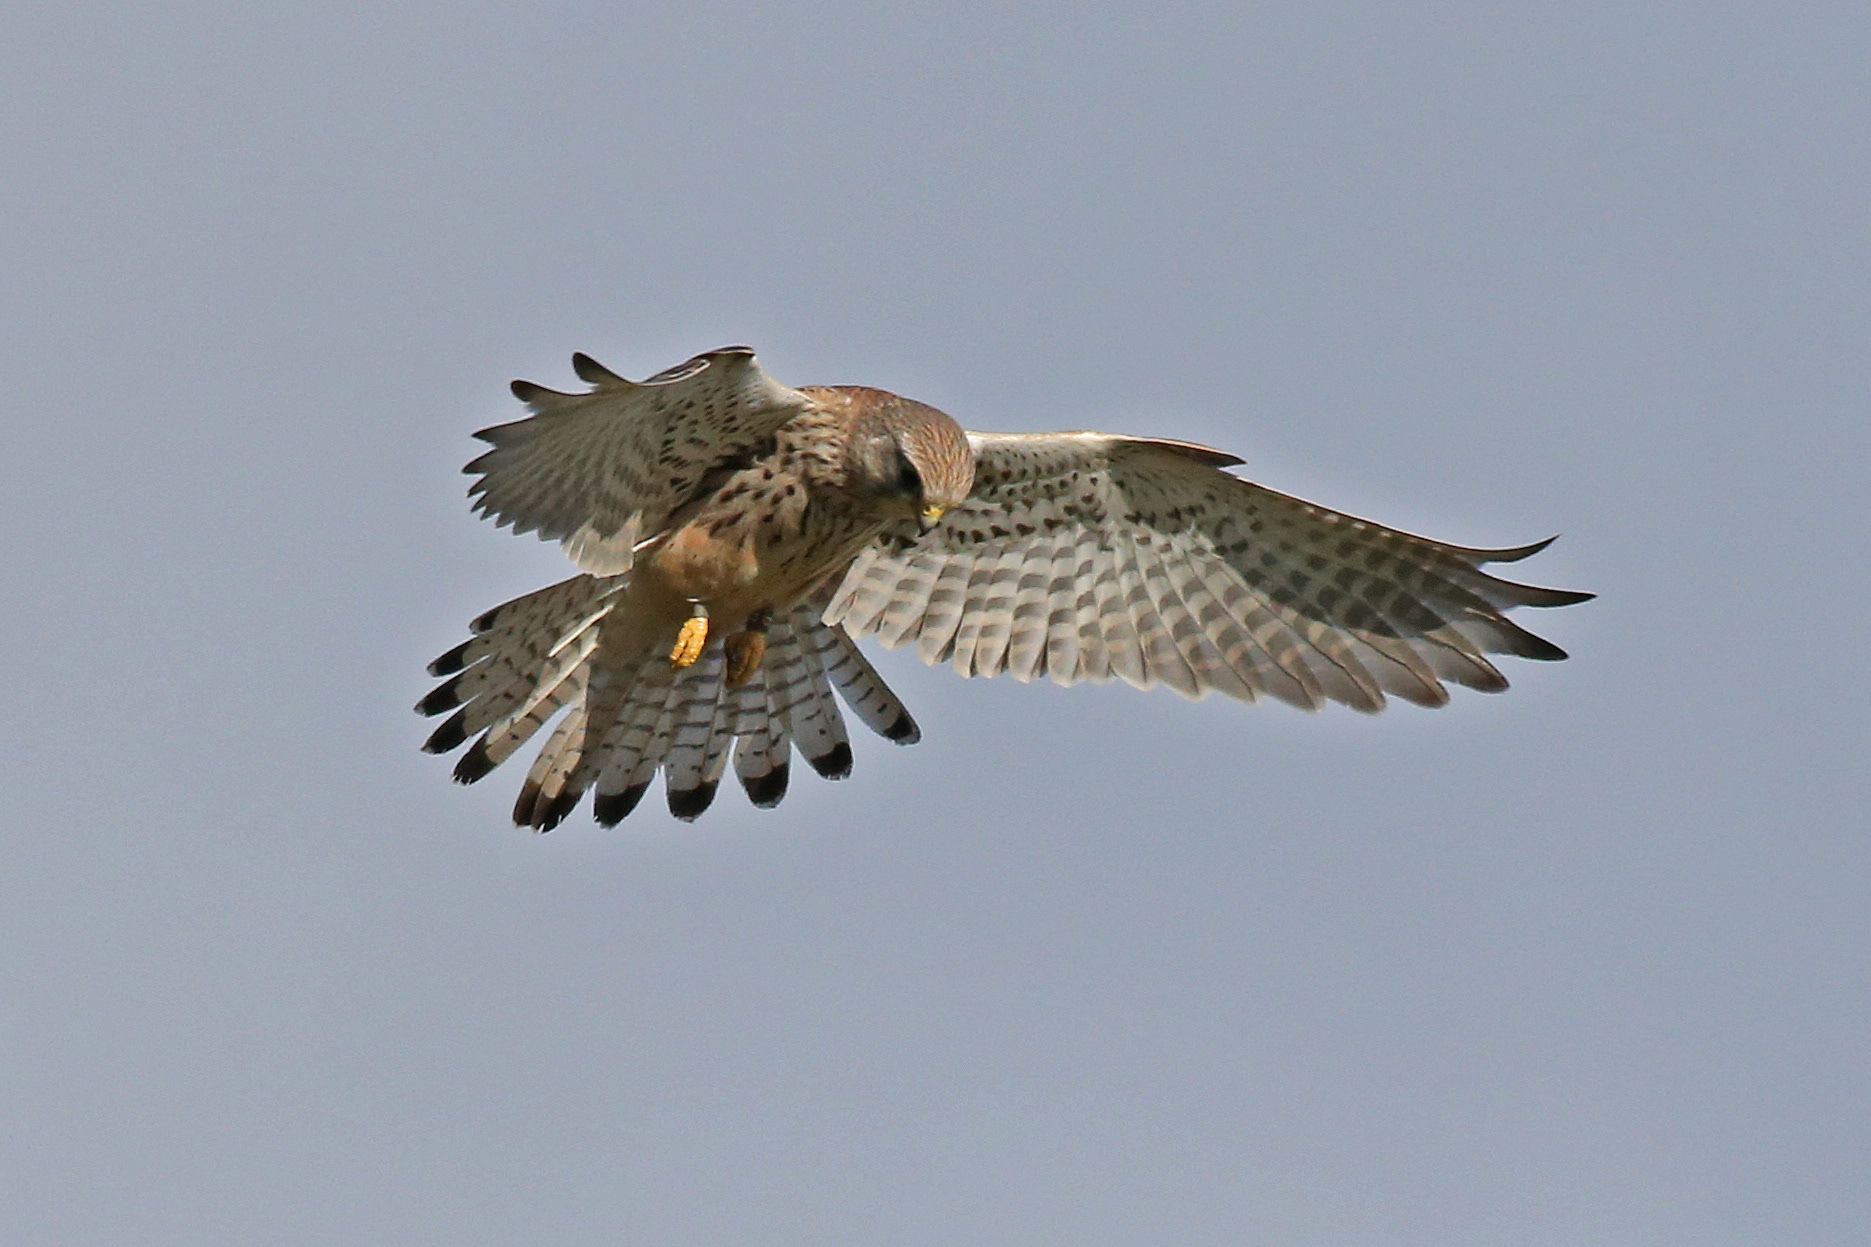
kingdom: Animalia
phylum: Chordata
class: Aves
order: Falconiformes
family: Falconidae
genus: Falco
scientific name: Falco tinnunculus
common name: Common kestrel
